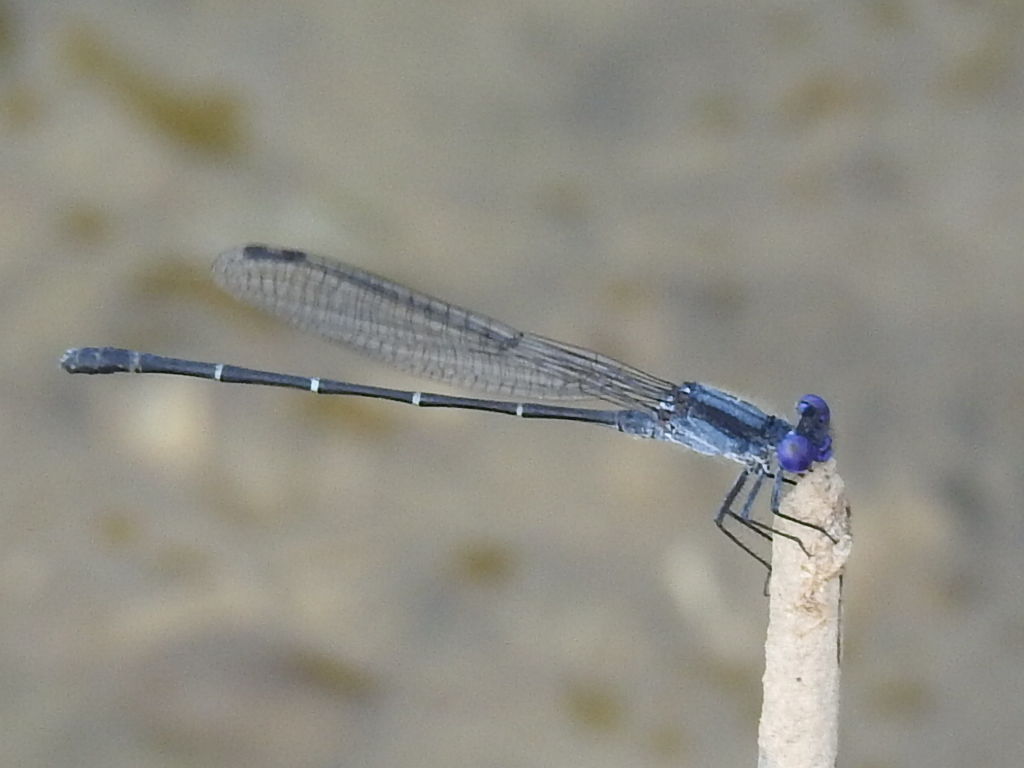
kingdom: Animalia
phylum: Arthropoda
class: Insecta
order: Odonata
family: Coenagrionidae
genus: Argia
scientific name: Argia translata
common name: Dusky dancer
